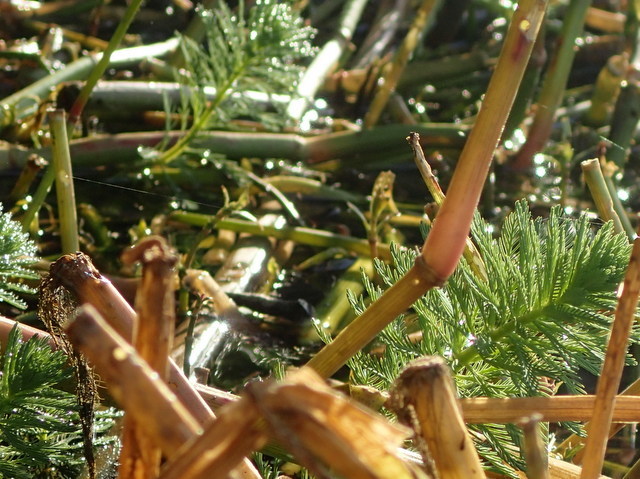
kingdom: Plantae
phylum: Tracheophyta
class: Magnoliopsida
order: Saxifragales
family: Haloragaceae
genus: Myriophyllum
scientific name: Myriophyllum aquaticum
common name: Parrot's feather
